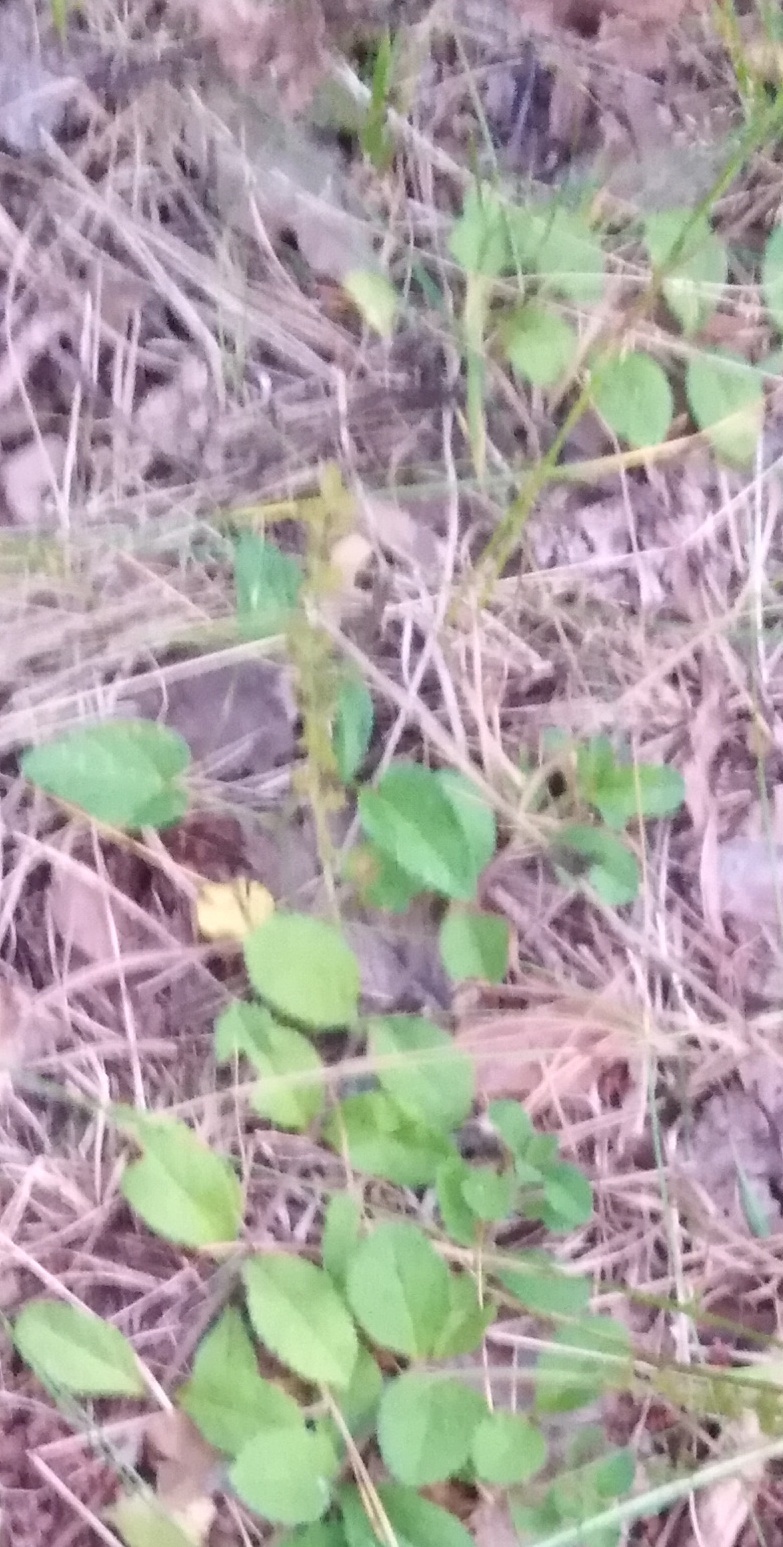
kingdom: Plantae
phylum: Tracheophyta
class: Magnoliopsida
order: Lamiales
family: Plantaginaceae
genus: Veronica
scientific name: Veronica officinalis
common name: Common speedwell
